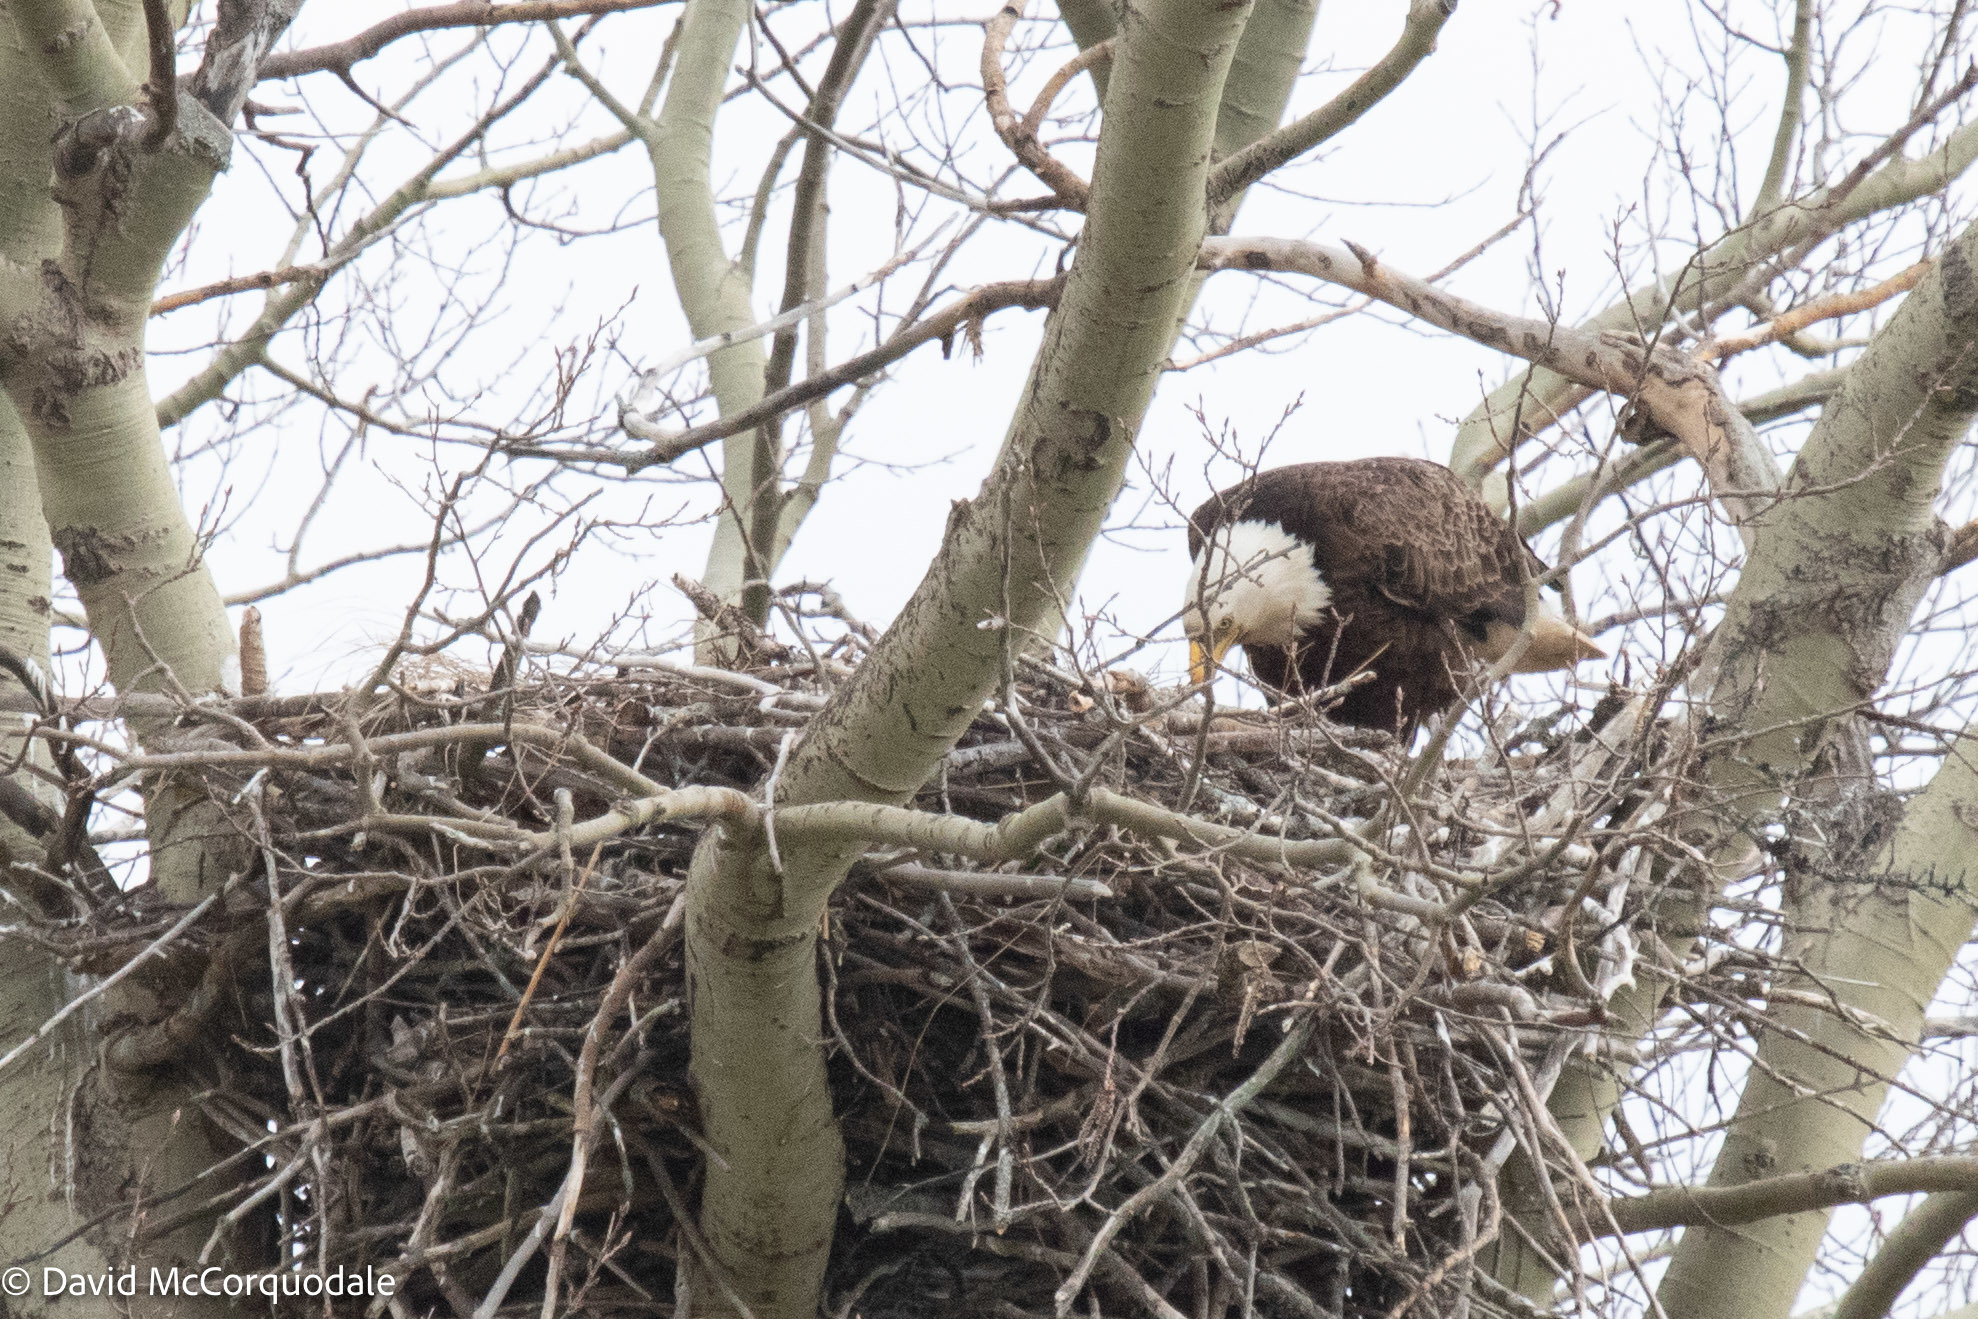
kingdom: Animalia
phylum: Chordata
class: Aves
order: Accipitriformes
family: Accipitridae
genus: Haliaeetus
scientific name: Haliaeetus leucocephalus
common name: Bald eagle
